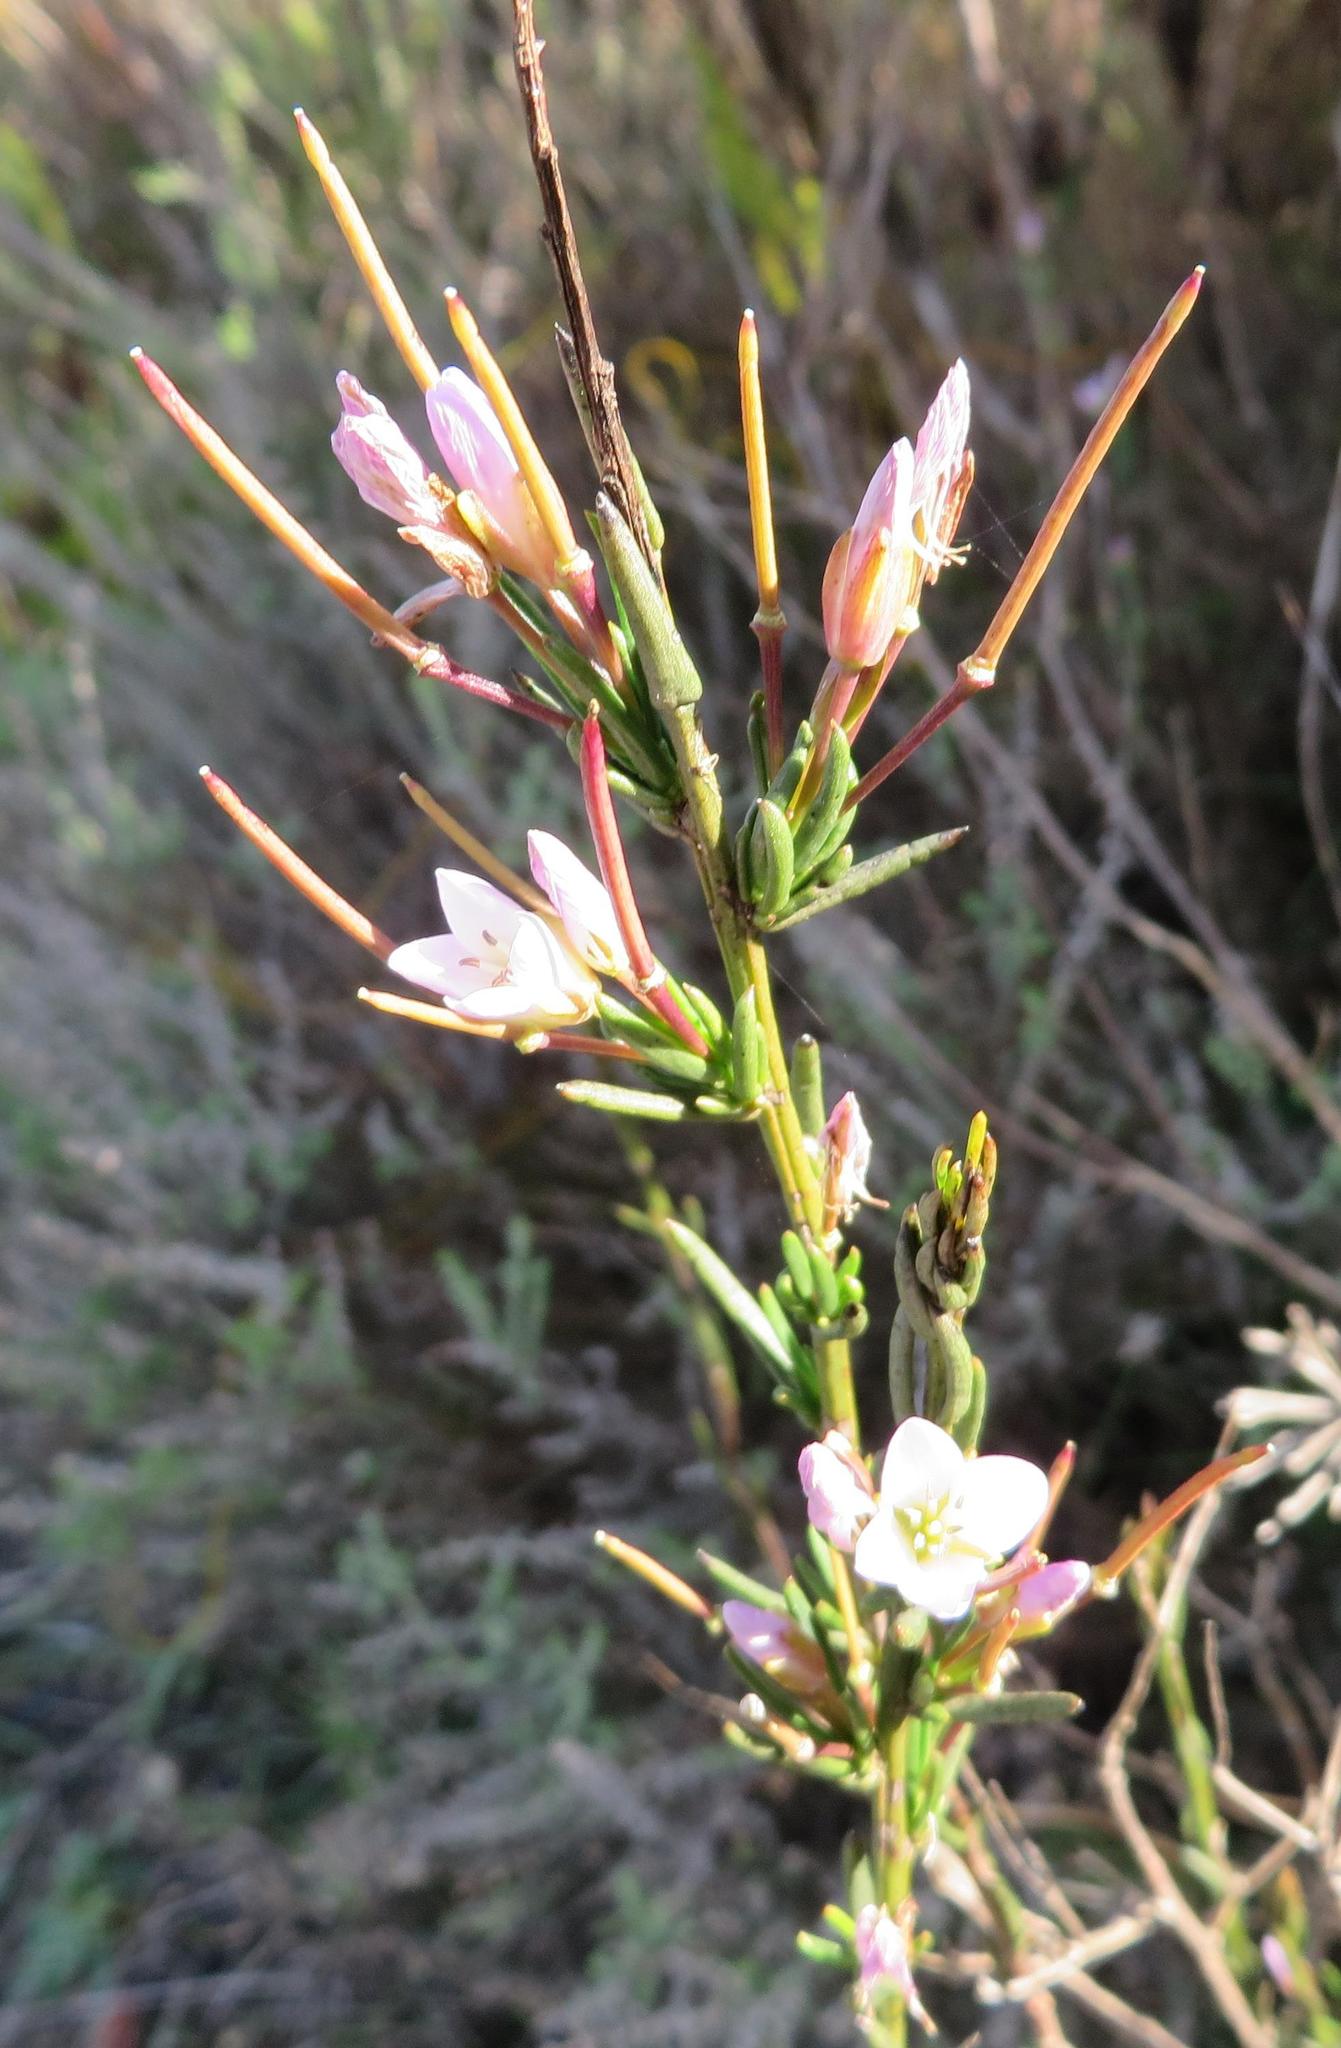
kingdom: Plantae
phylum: Tracheophyta
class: Magnoliopsida
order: Brassicales
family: Brassicaceae
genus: Heliophila
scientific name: Heliophila scoparia
